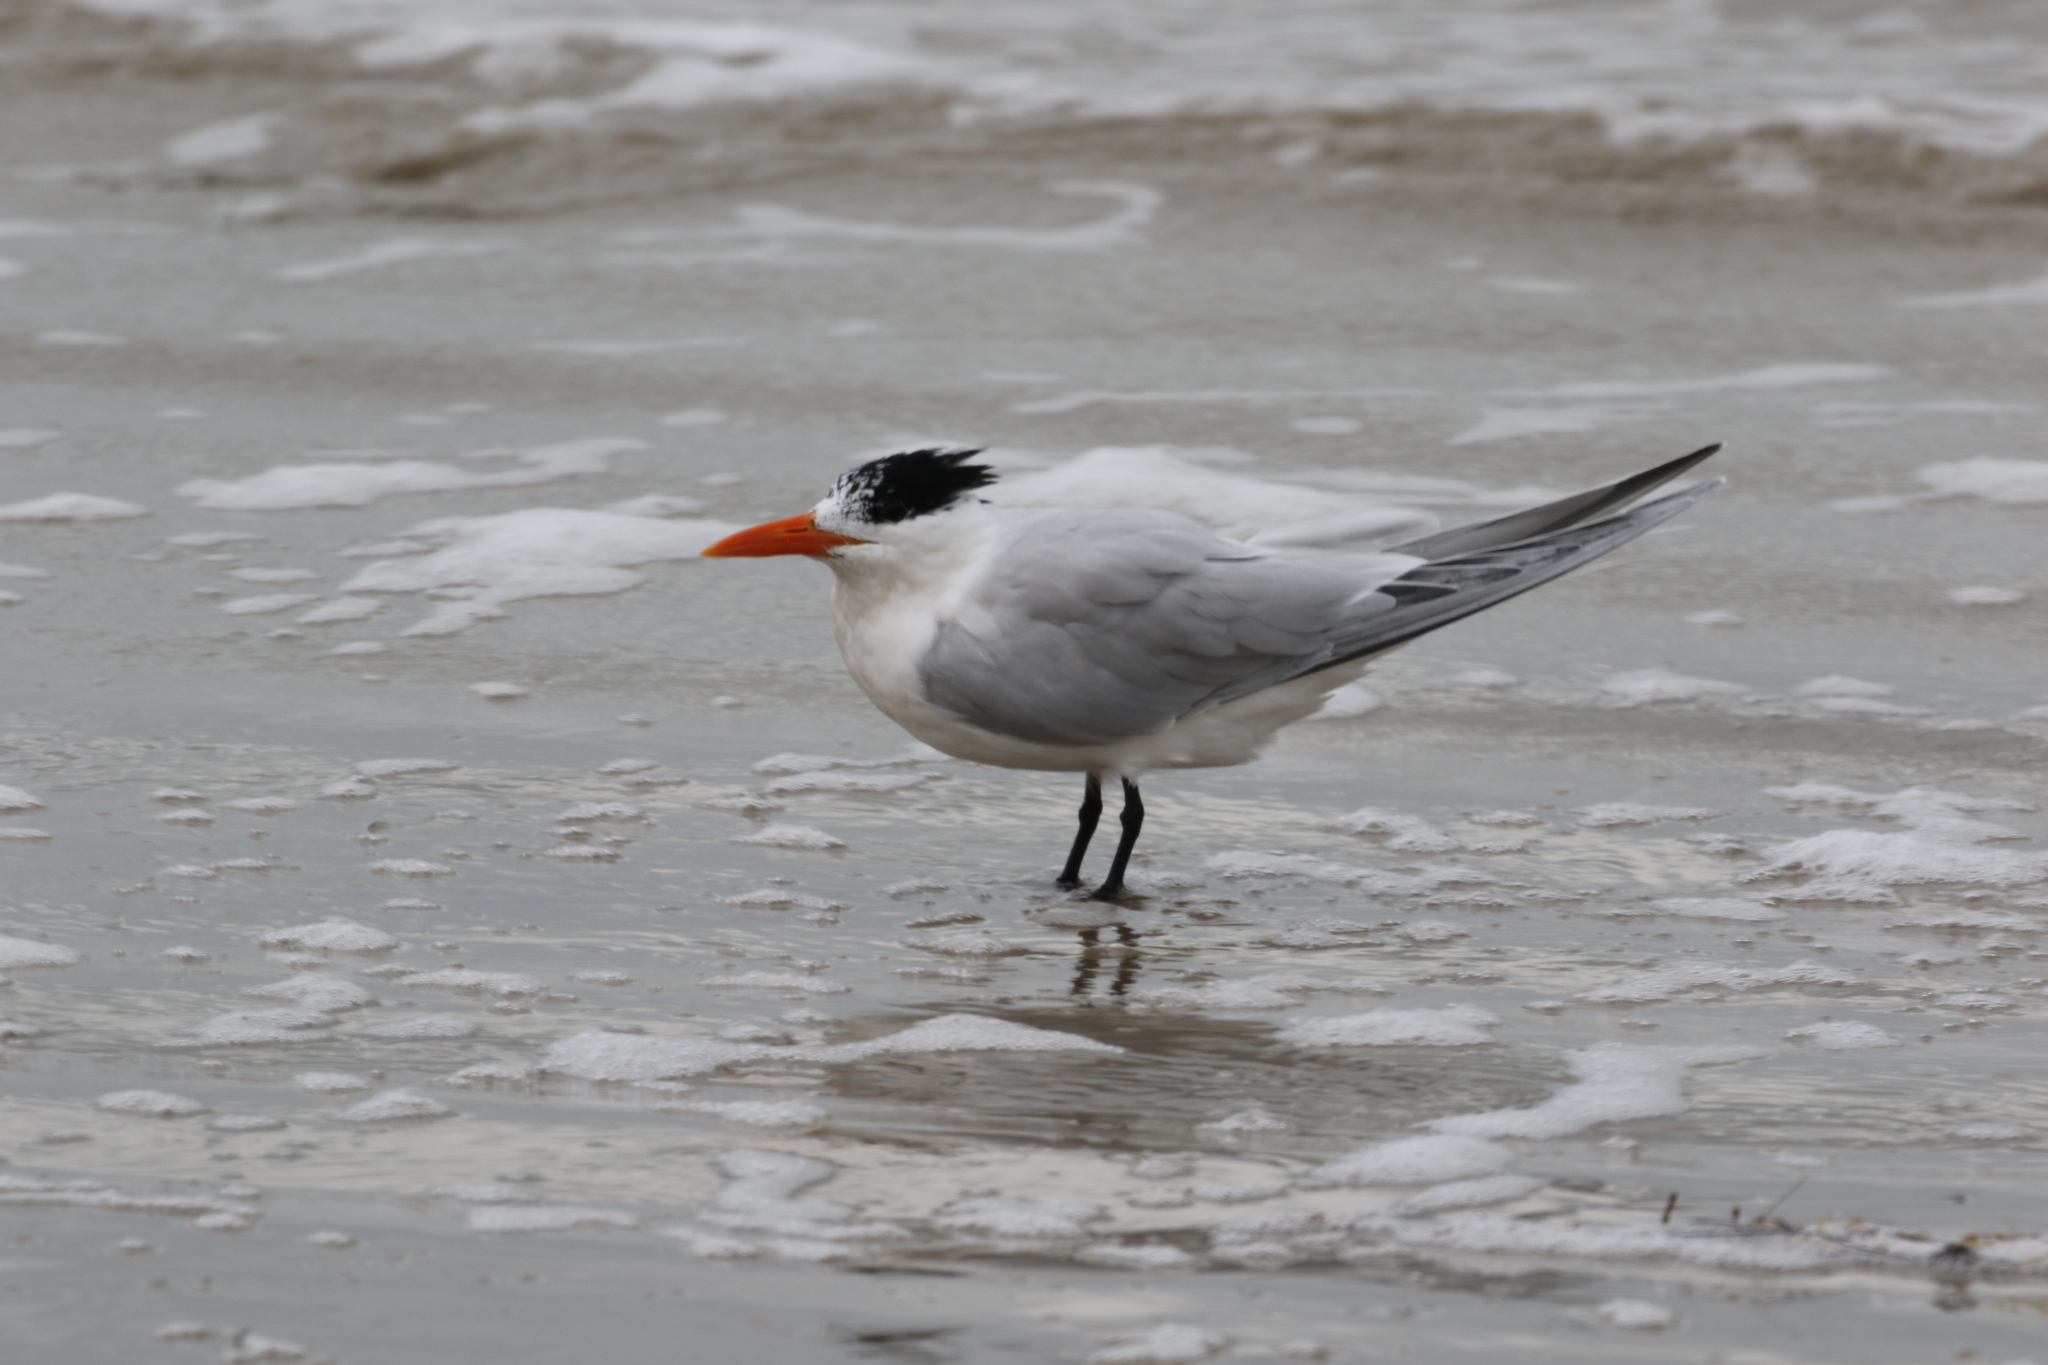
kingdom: Animalia
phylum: Chordata
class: Aves
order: Charadriiformes
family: Laridae
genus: Thalasseus
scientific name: Thalasseus maximus
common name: Royal tern
